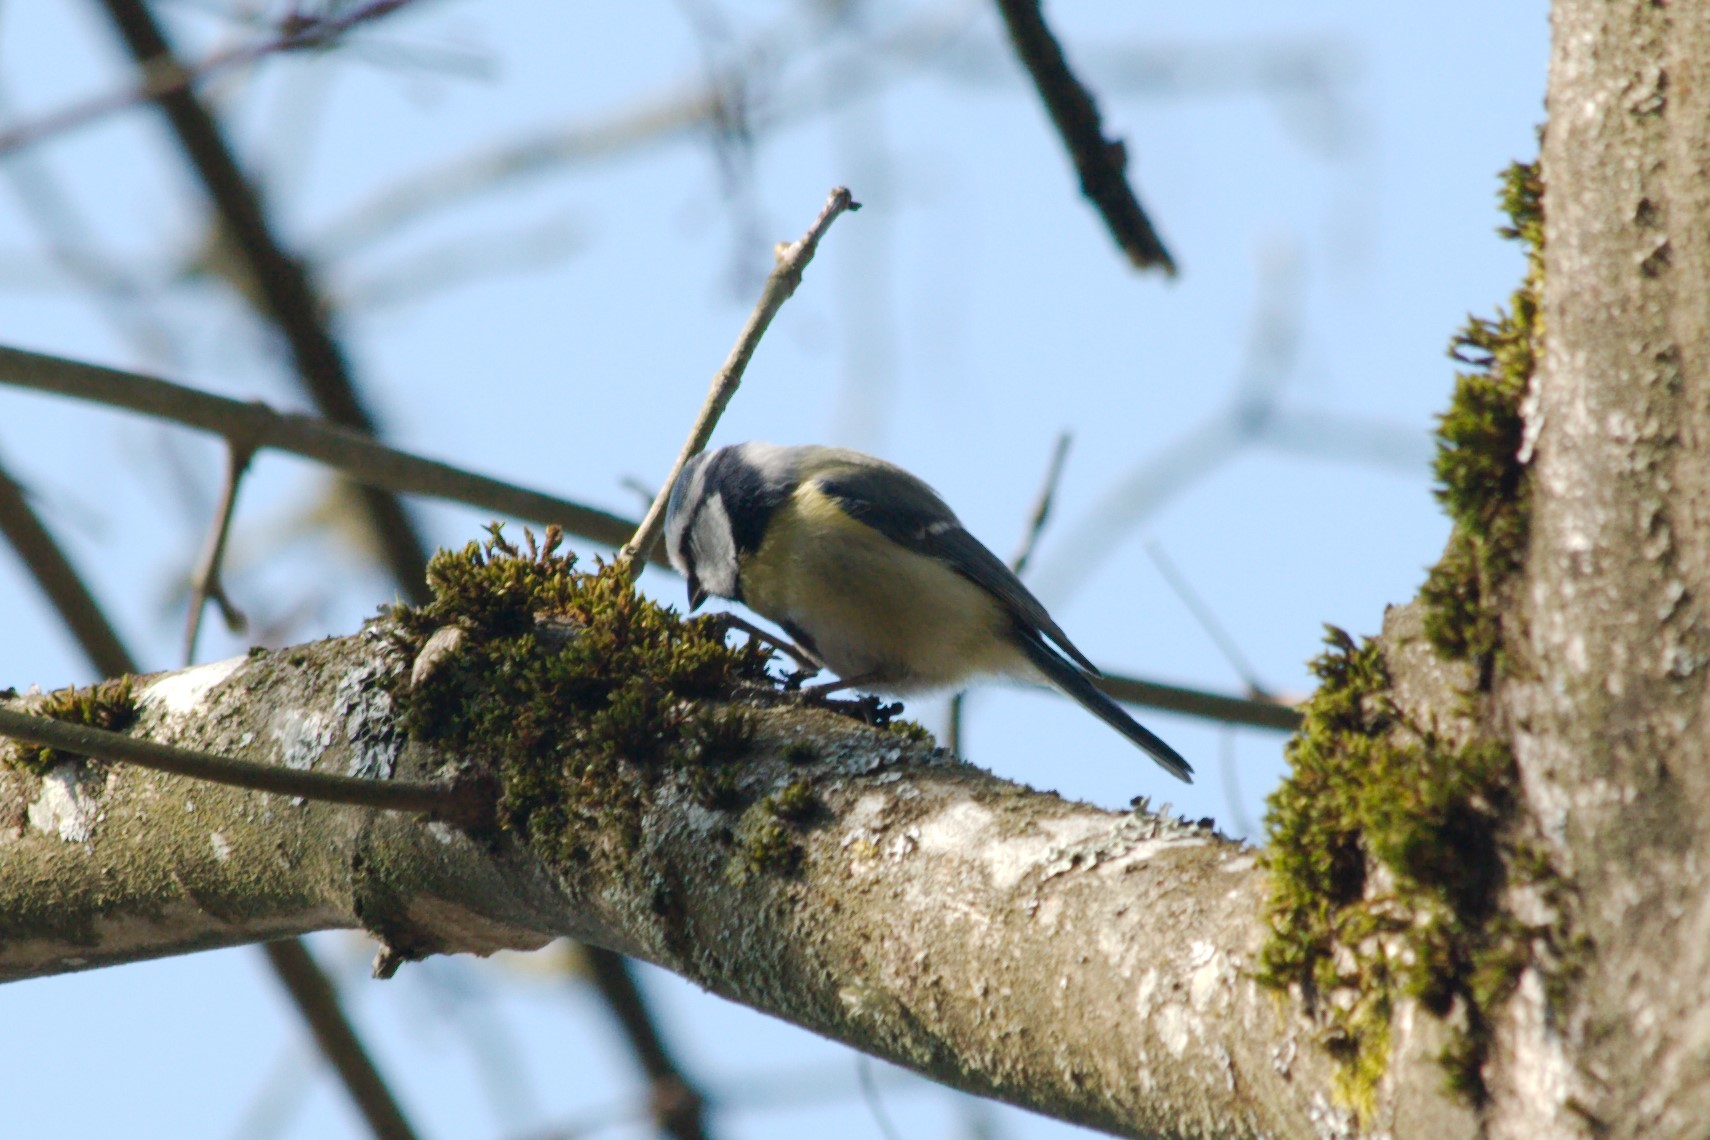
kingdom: Animalia
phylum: Chordata
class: Aves
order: Passeriformes
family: Paridae
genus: Cyanistes
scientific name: Cyanistes caeruleus
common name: Eurasian blue tit
